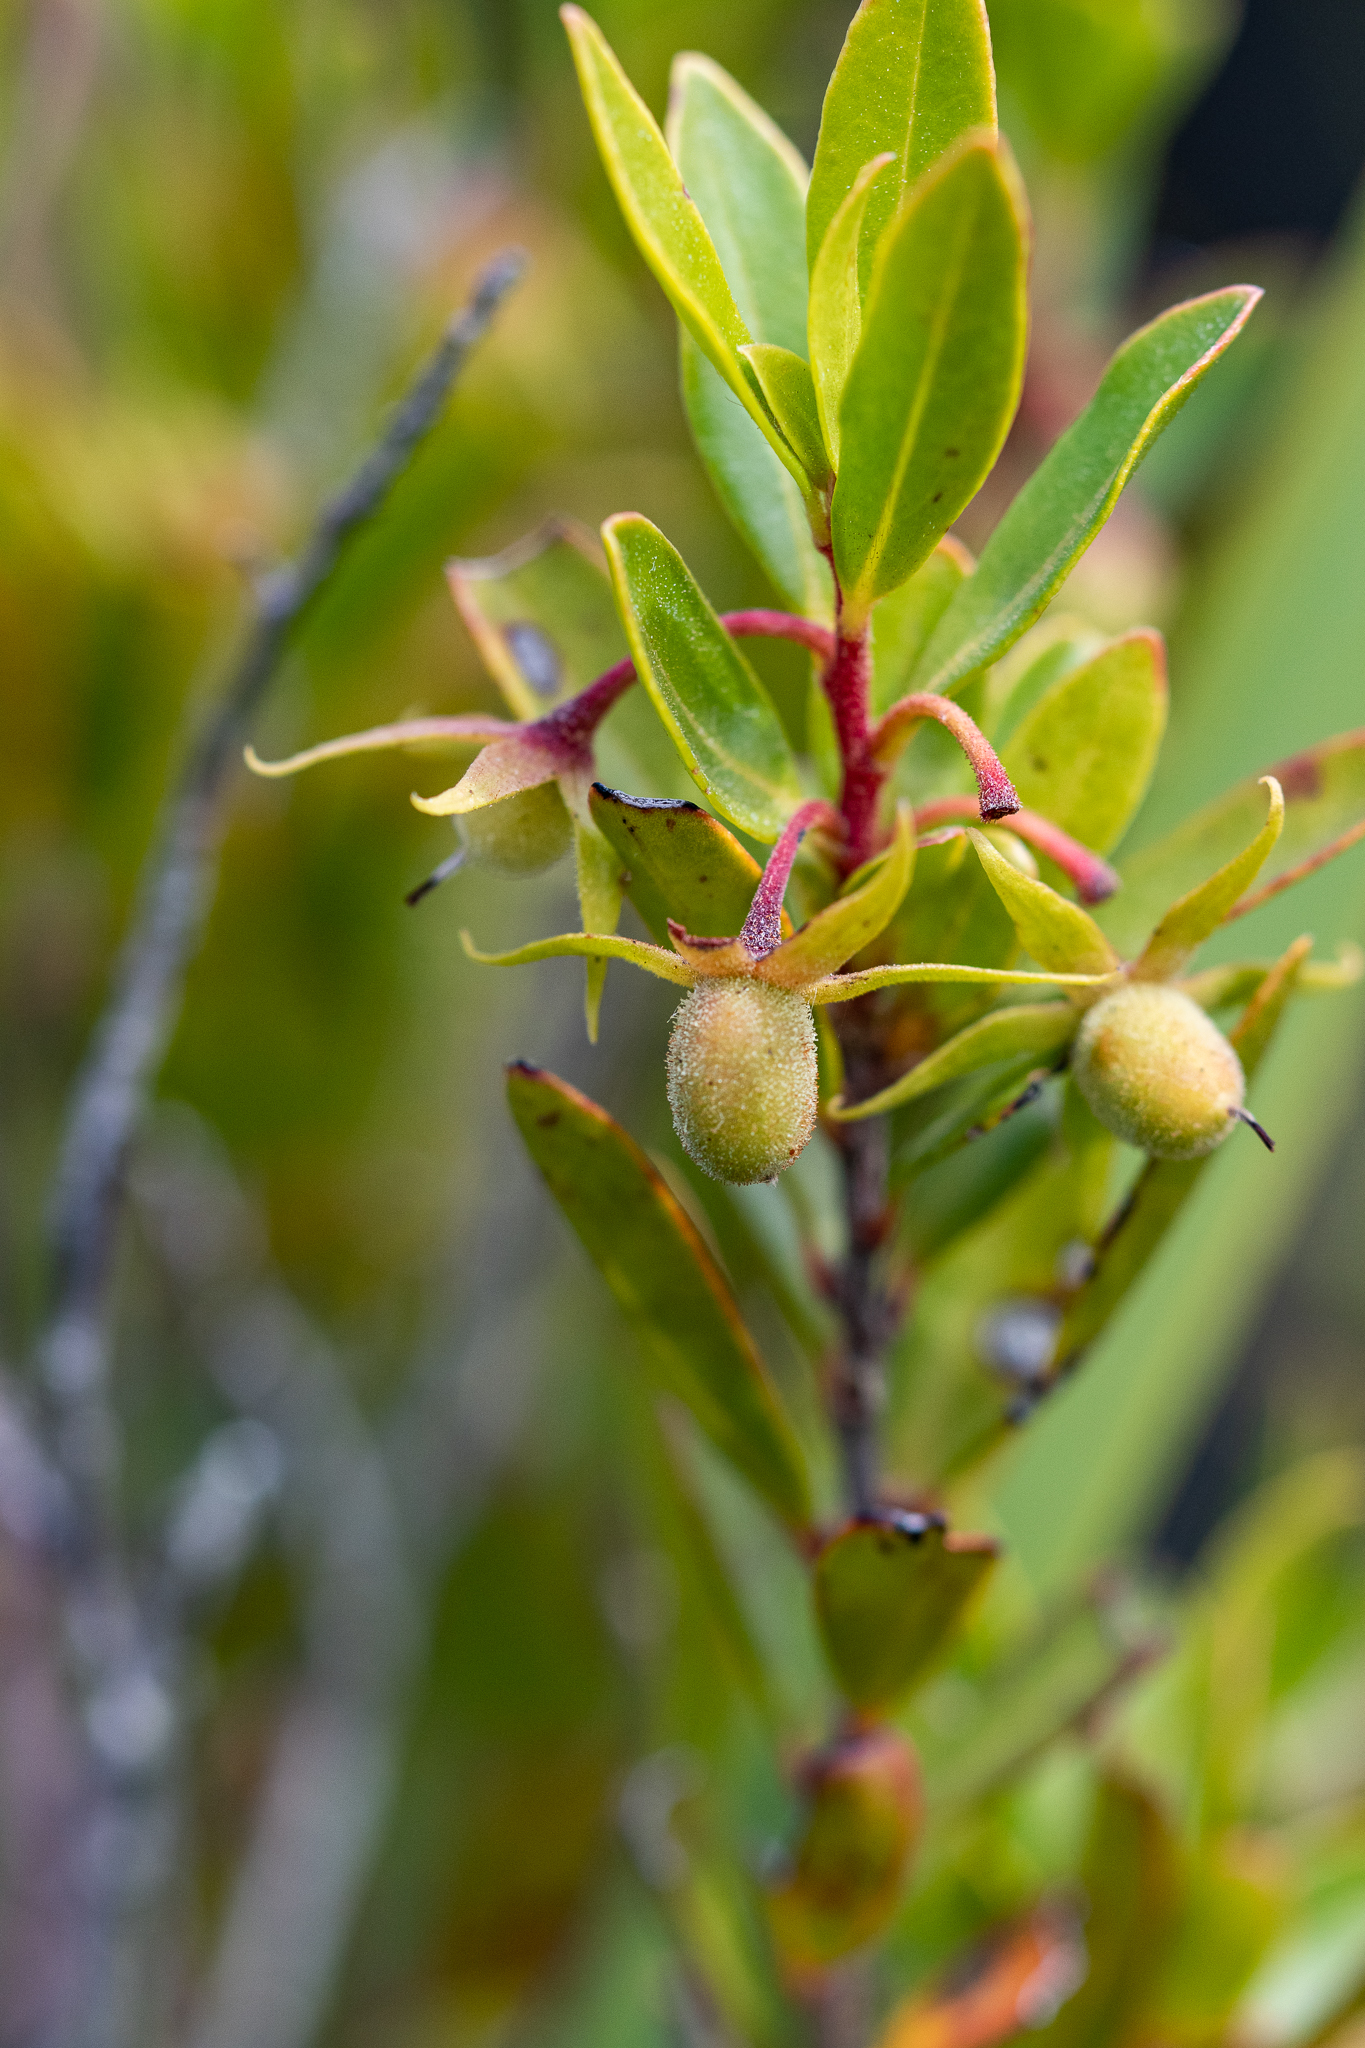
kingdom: Plantae
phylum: Tracheophyta
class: Magnoliopsida
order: Ericales
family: Ebenaceae
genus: Diospyros
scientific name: Diospyros glabra
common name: Fynbos star apple
